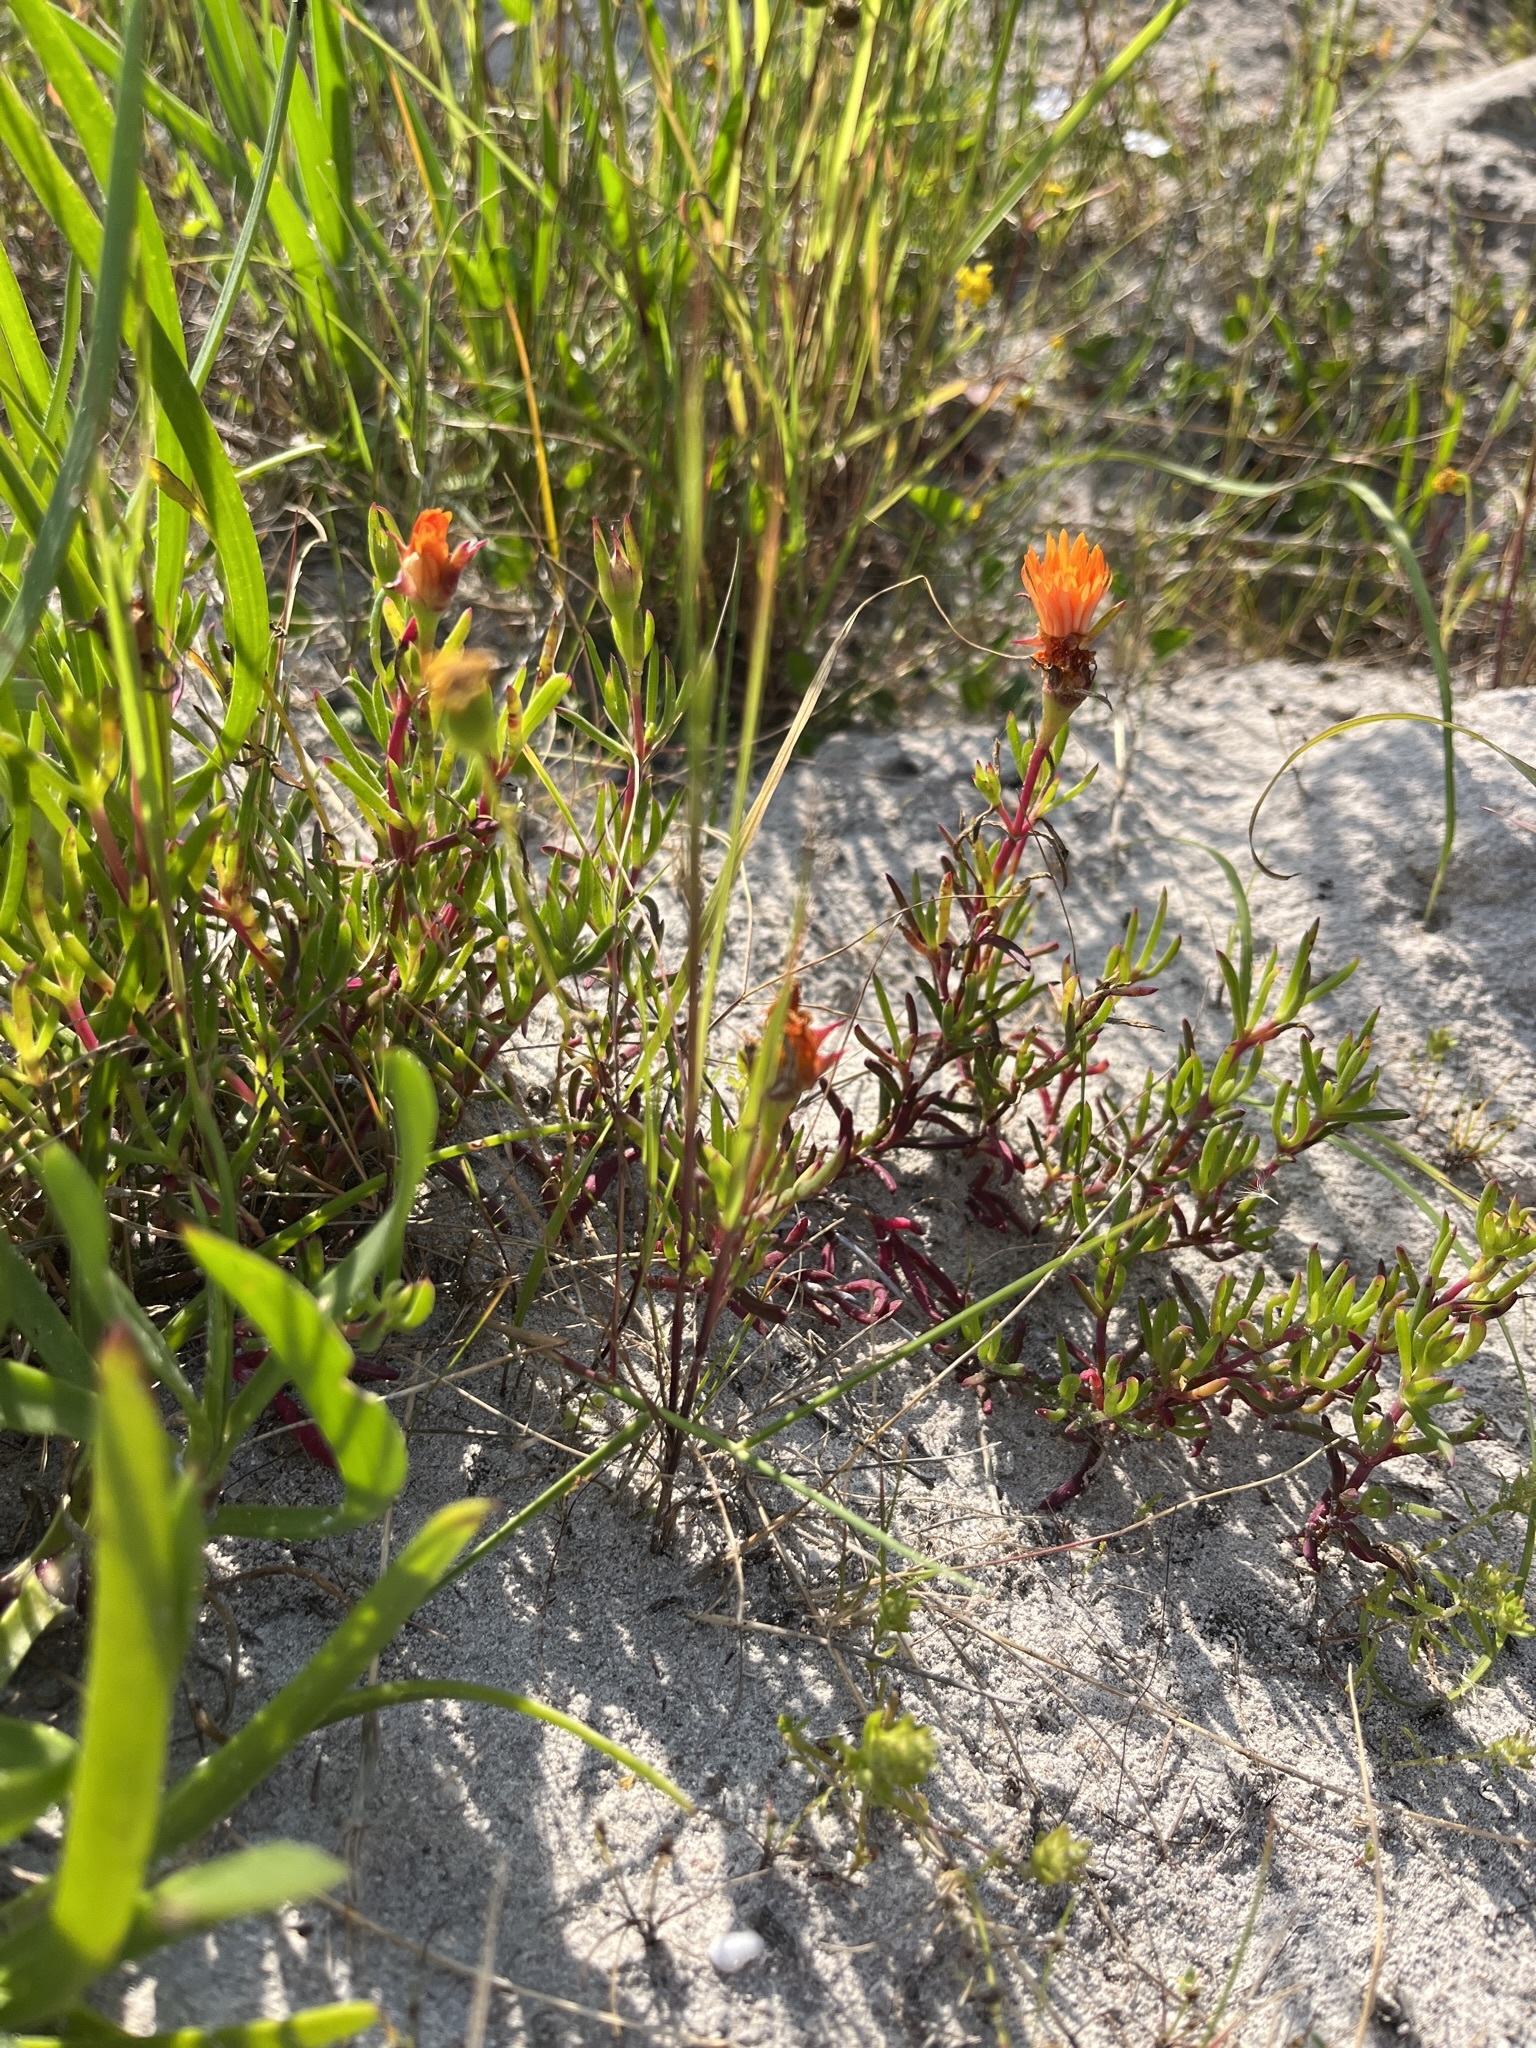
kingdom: Plantae
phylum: Tracheophyta
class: Magnoliopsida
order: Caryophyllales
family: Aizoaceae
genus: Lampranthus
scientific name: Lampranthus fergusoniae
